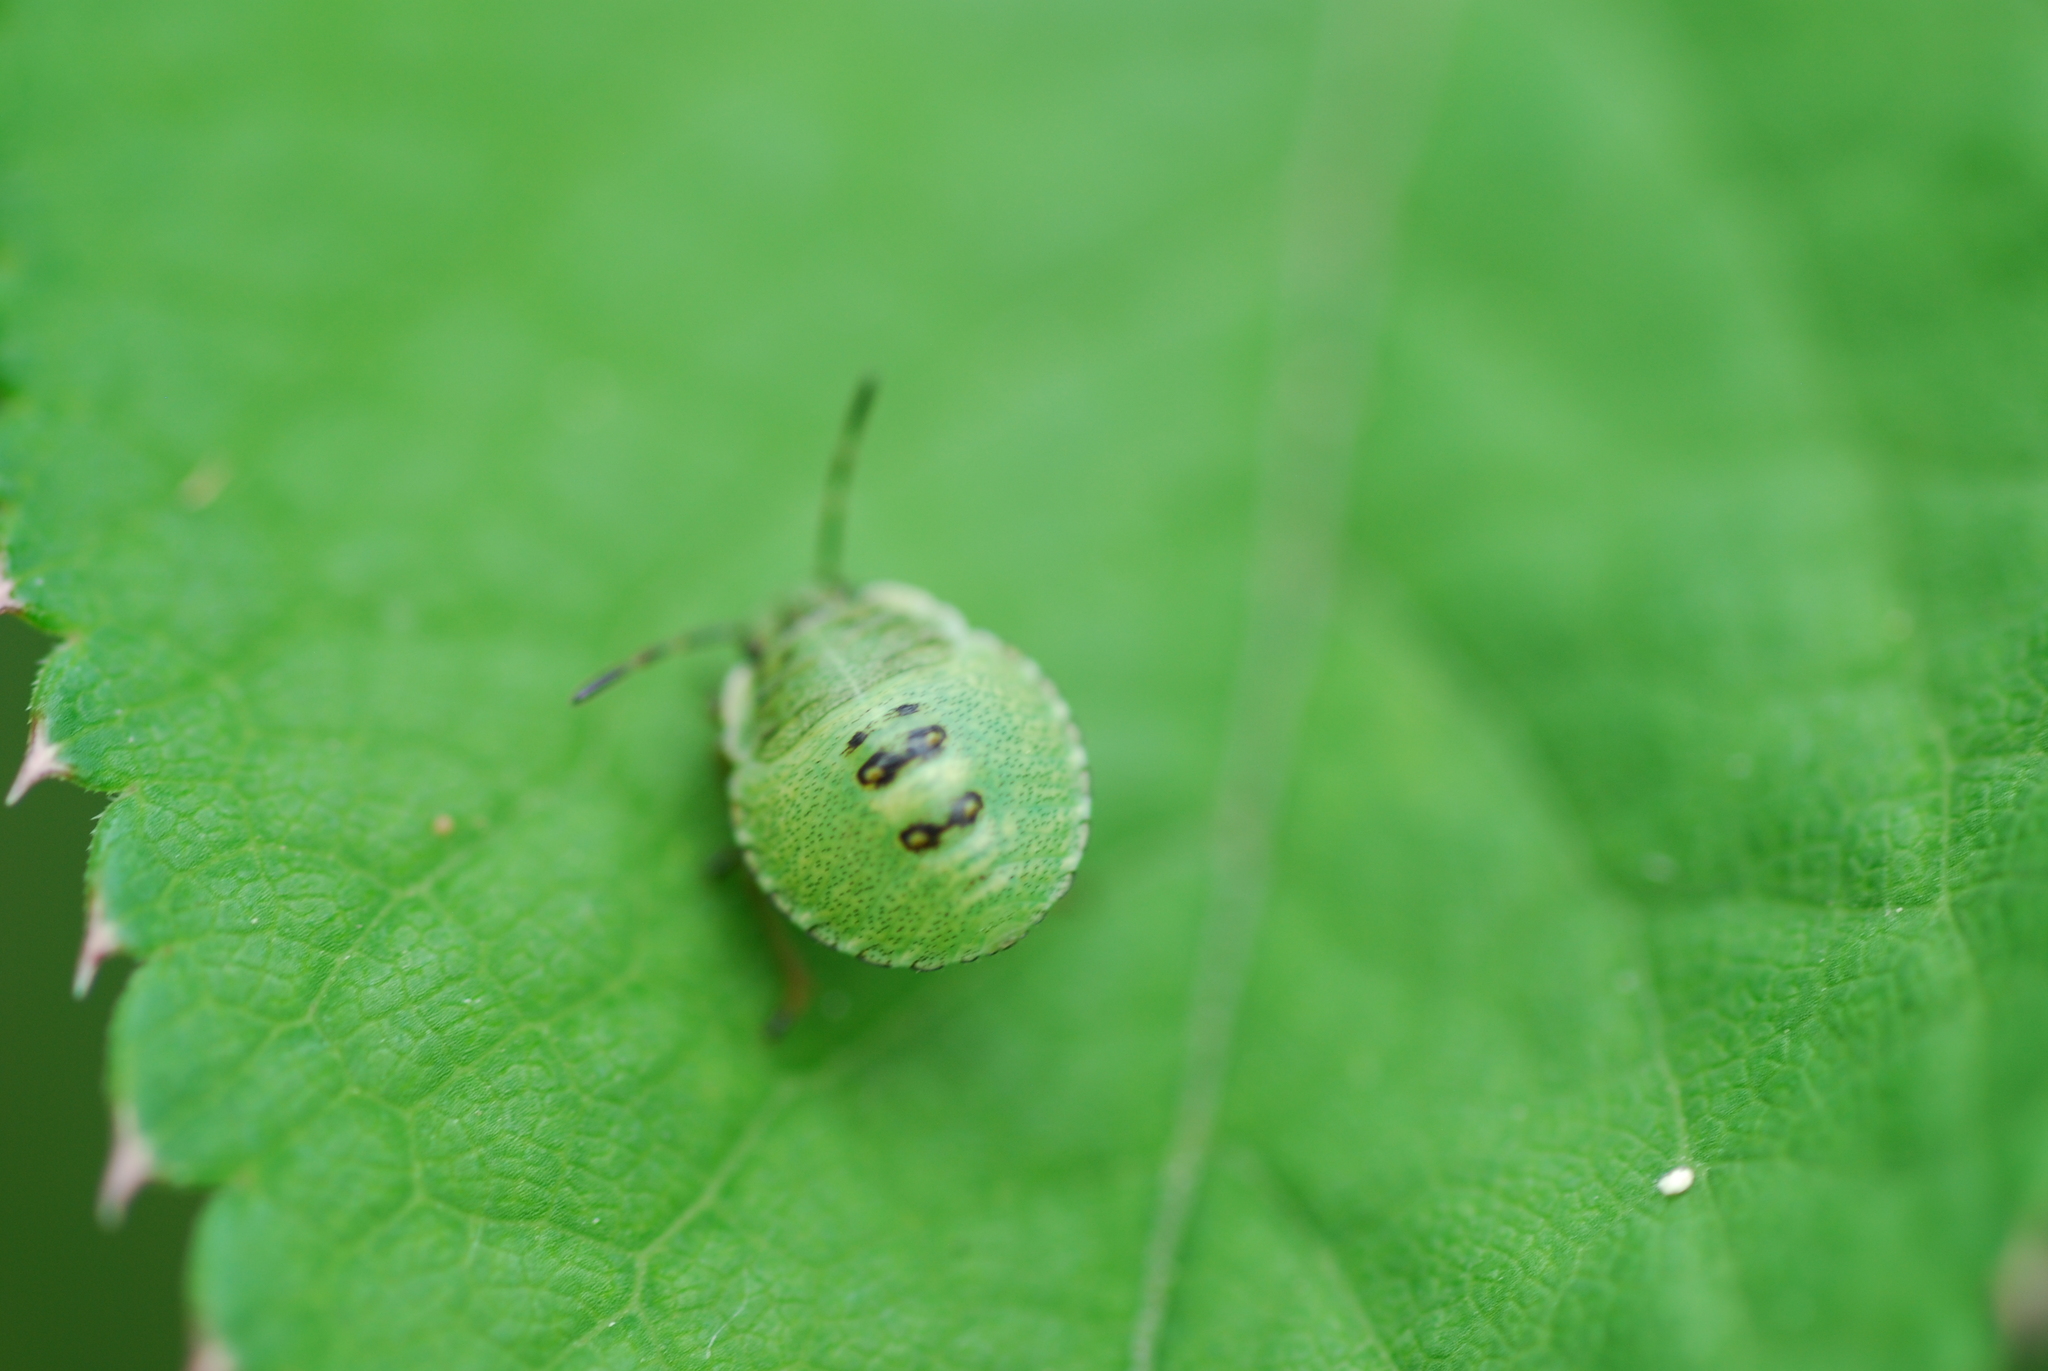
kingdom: Animalia
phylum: Arthropoda
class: Insecta
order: Hemiptera
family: Pentatomidae
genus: Palomena
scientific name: Palomena prasina
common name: Green shieldbug
